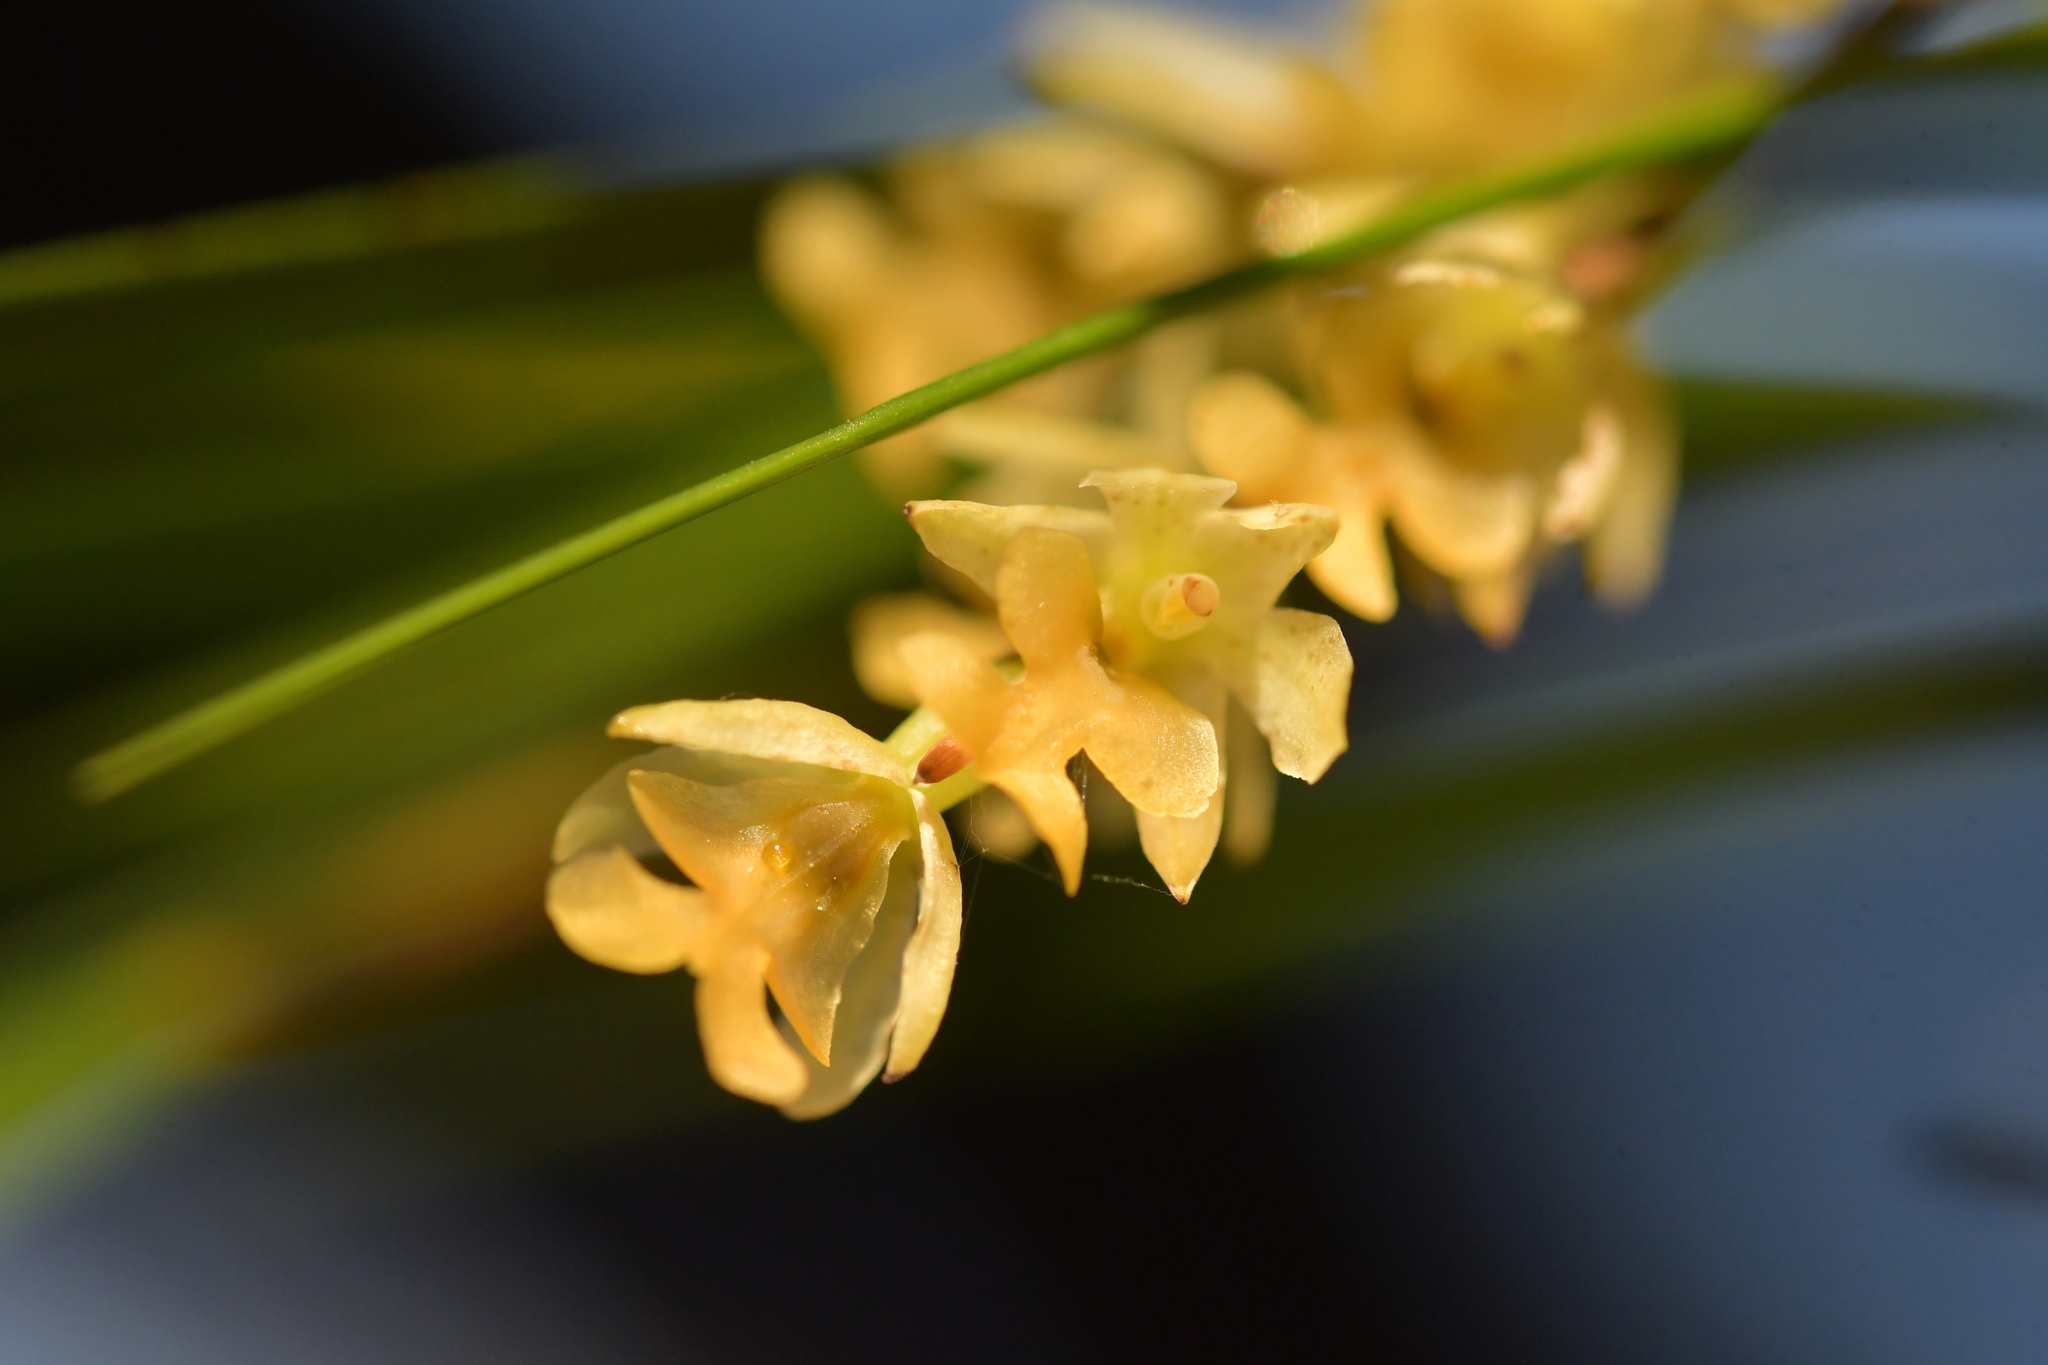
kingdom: Plantae
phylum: Tracheophyta
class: Liliopsida
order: Asparagales
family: Orchidaceae
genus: Earina
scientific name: Earina mucronata
